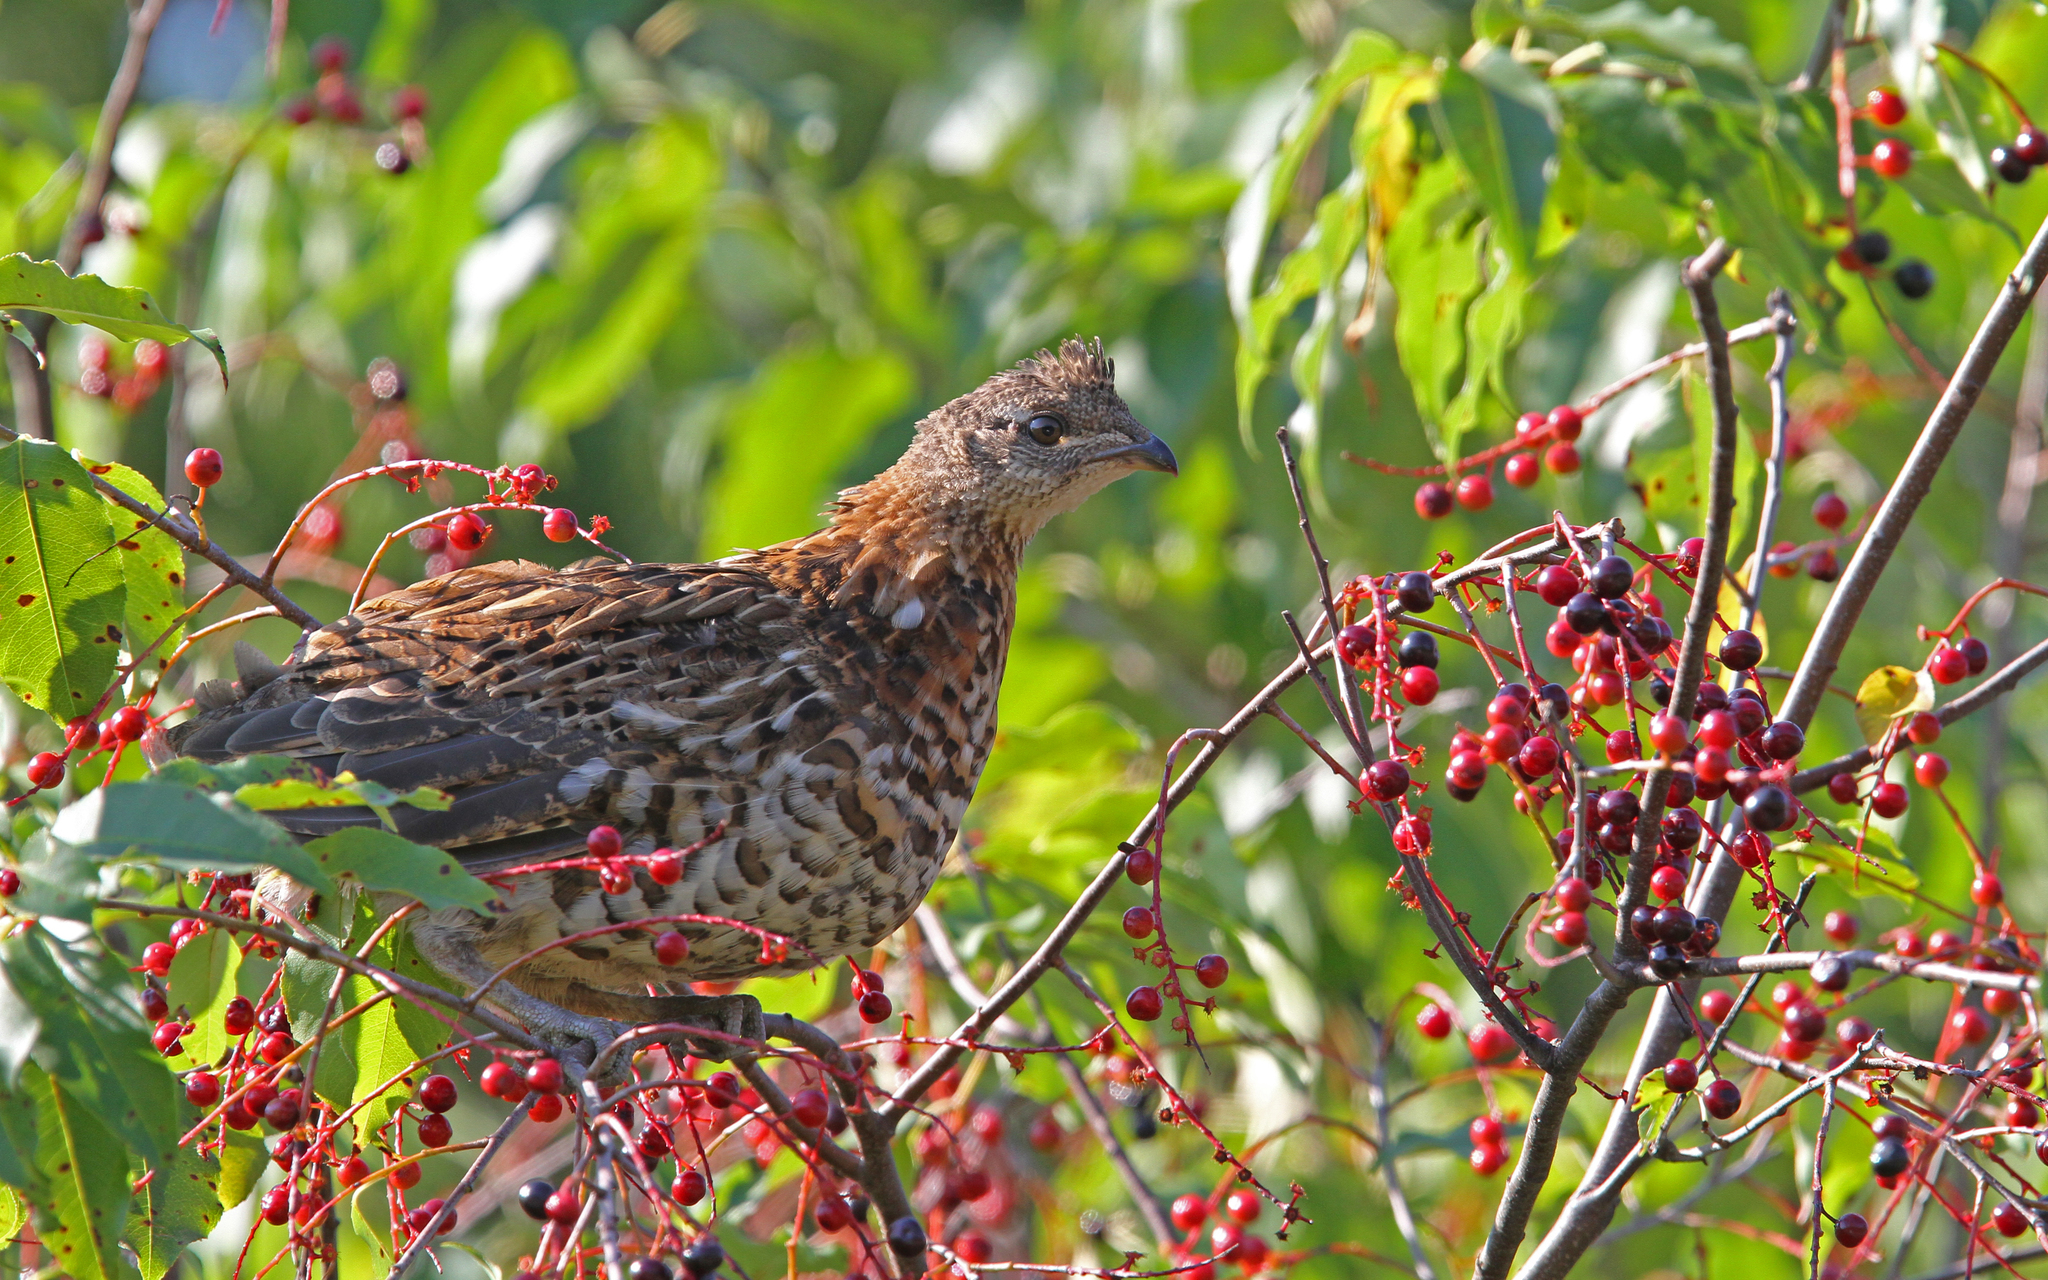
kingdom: Animalia
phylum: Chordata
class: Aves
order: Galliformes
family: Phasianidae
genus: Bonasa
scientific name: Bonasa umbellus
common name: Ruffed grouse
